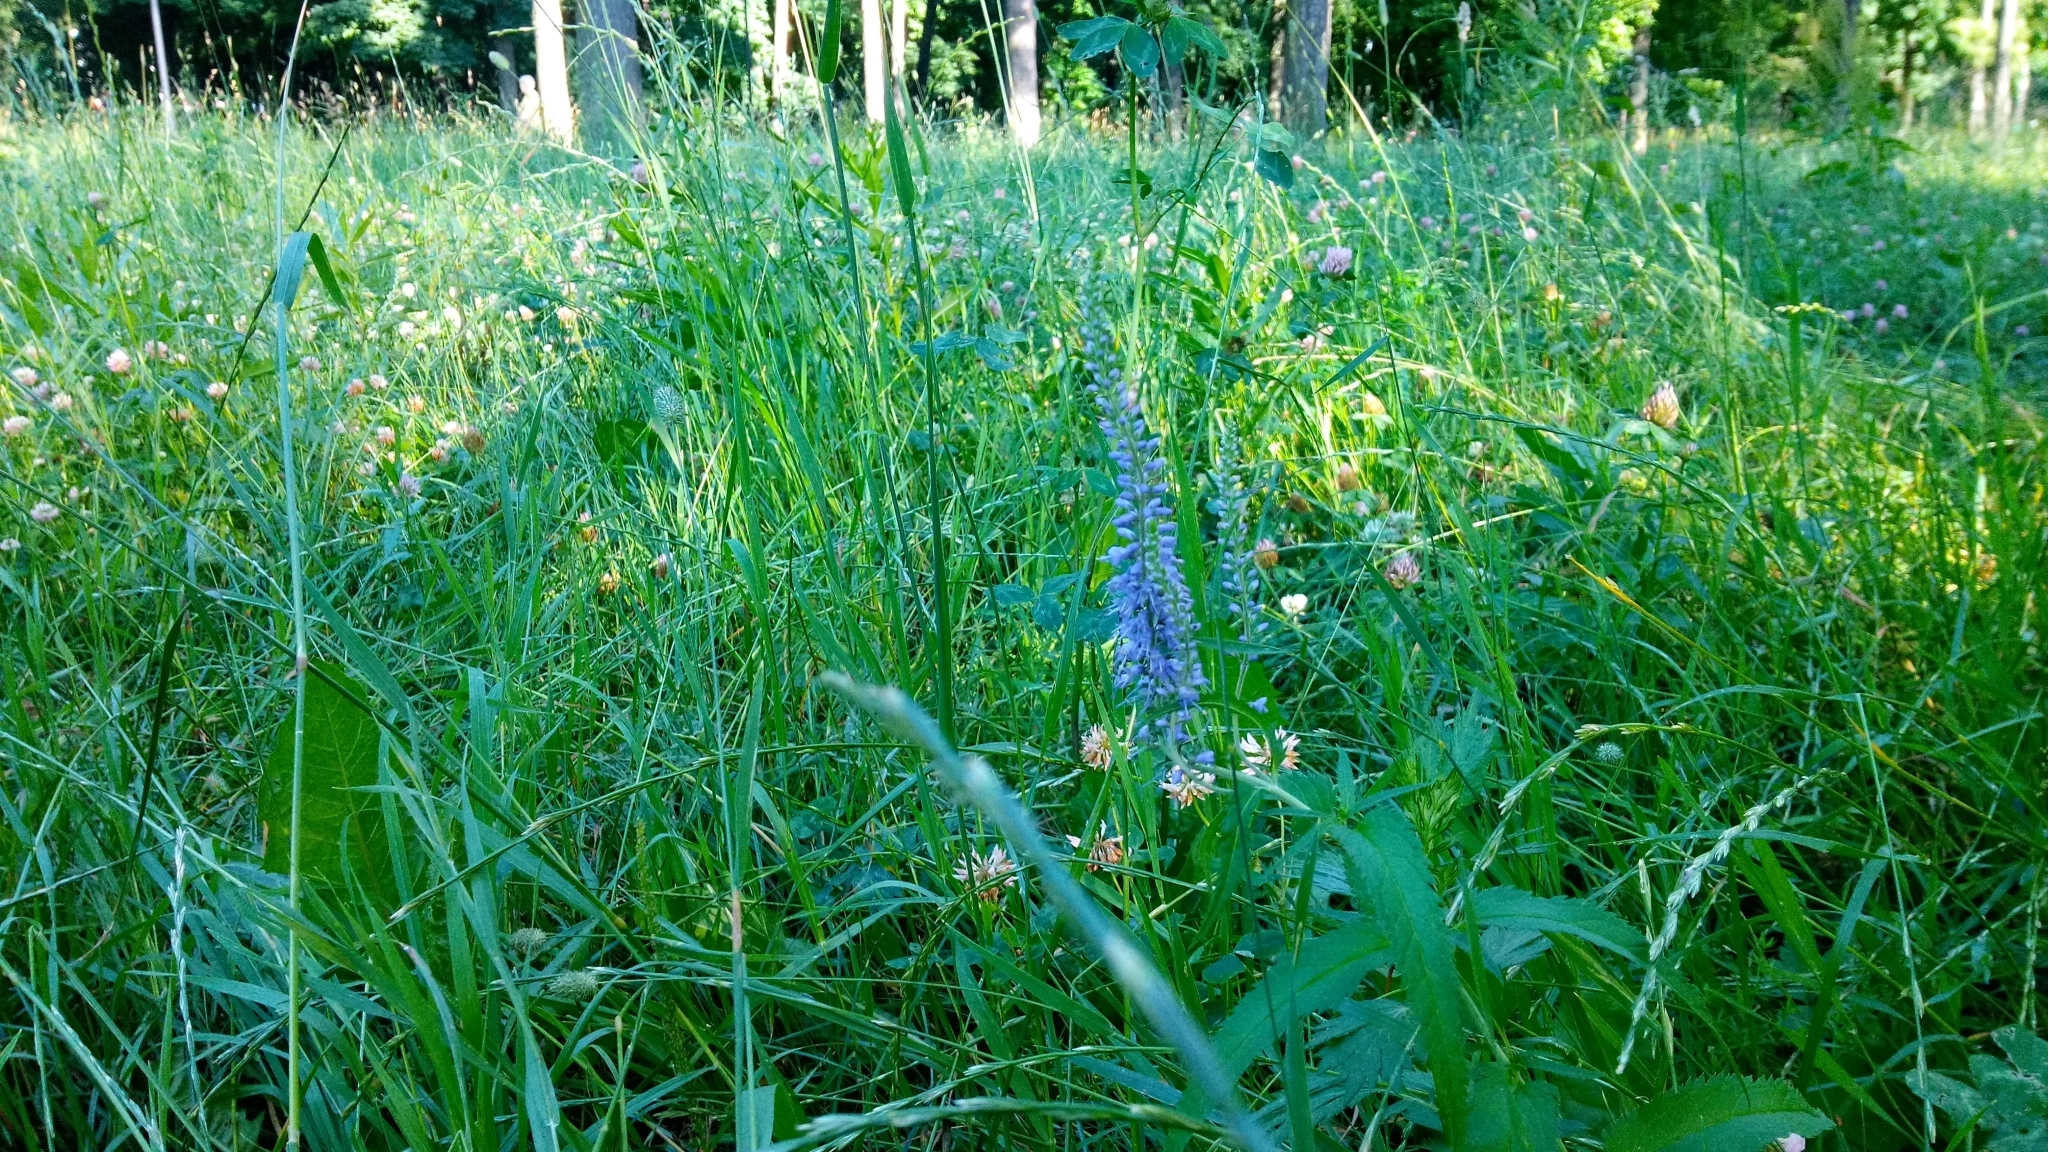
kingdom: Plantae
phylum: Tracheophyta
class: Magnoliopsida
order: Lamiales
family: Plantaginaceae
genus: Veronica
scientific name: Veronica longifolia
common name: Garden speedwell
